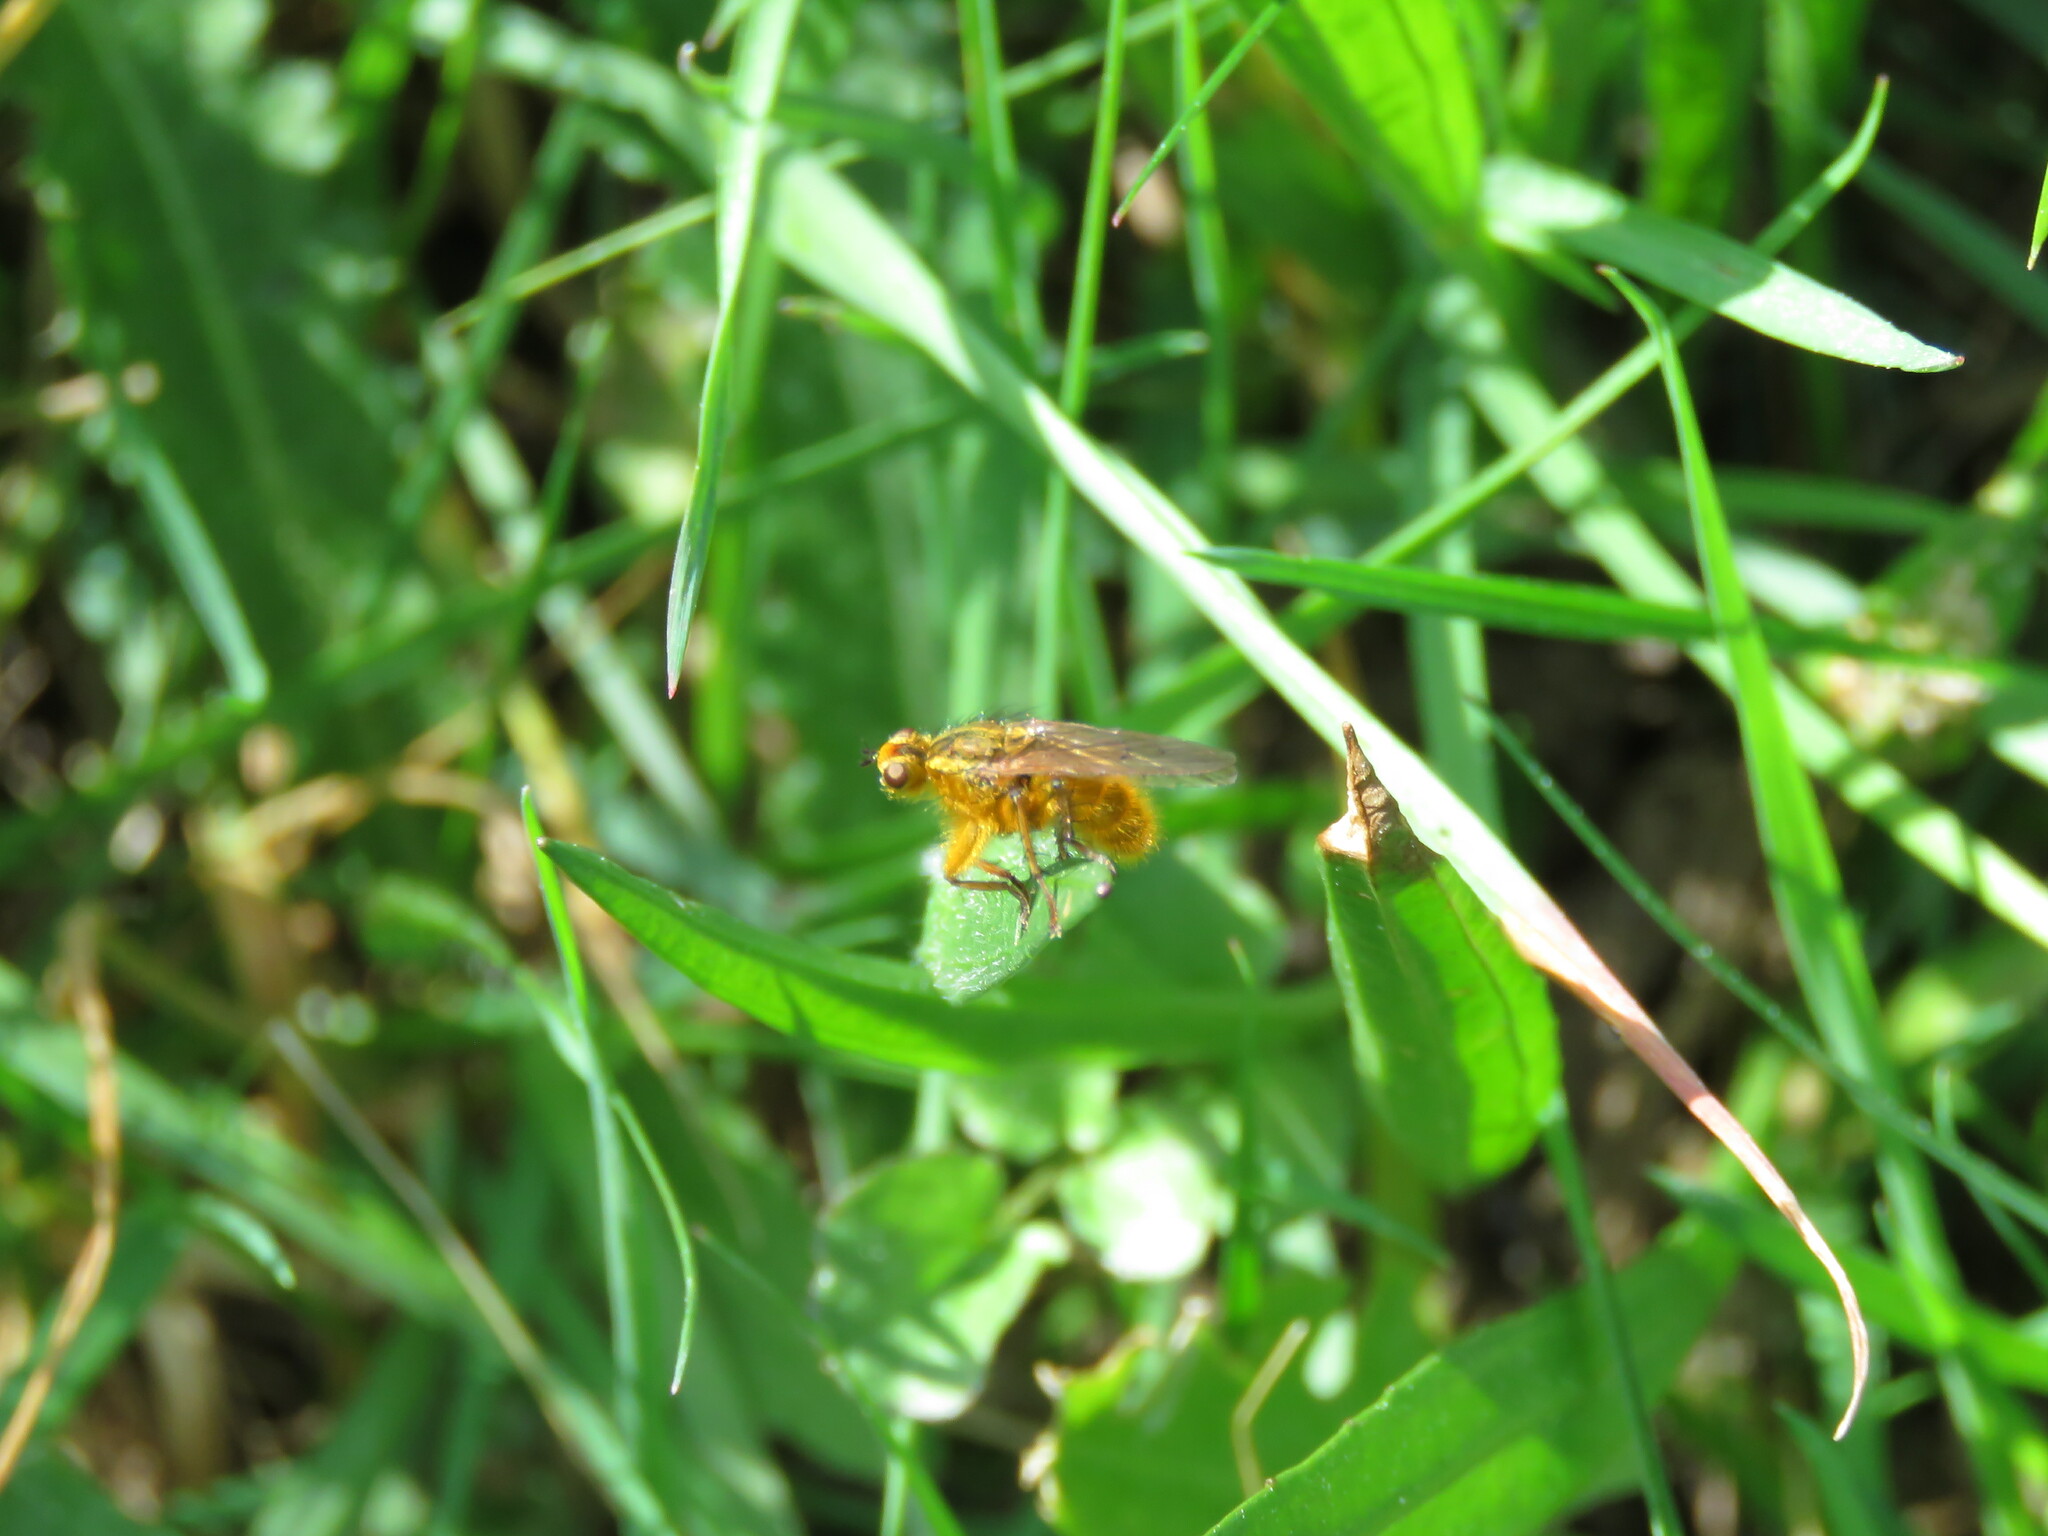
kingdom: Animalia
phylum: Arthropoda
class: Insecta
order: Diptera
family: Scathophagidae
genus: Scathophaga
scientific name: Scathophaga stercoraria
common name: Yellow dung fly
